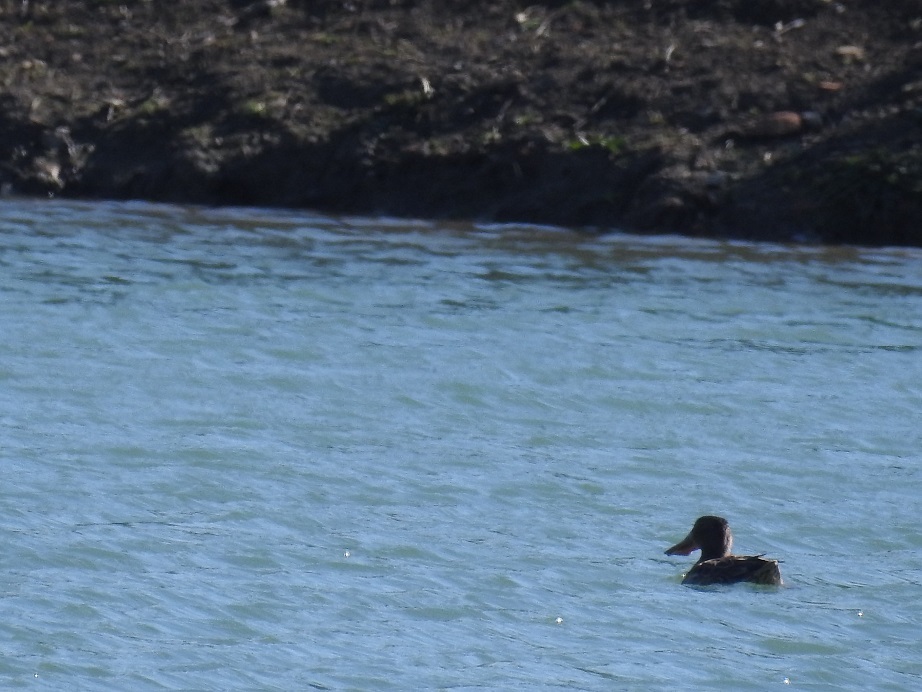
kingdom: Animalia
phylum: Chordata
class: Aves
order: Anseriformes
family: Anatidae
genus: Spatula
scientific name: Spatula clypeata
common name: Northern shoveler
